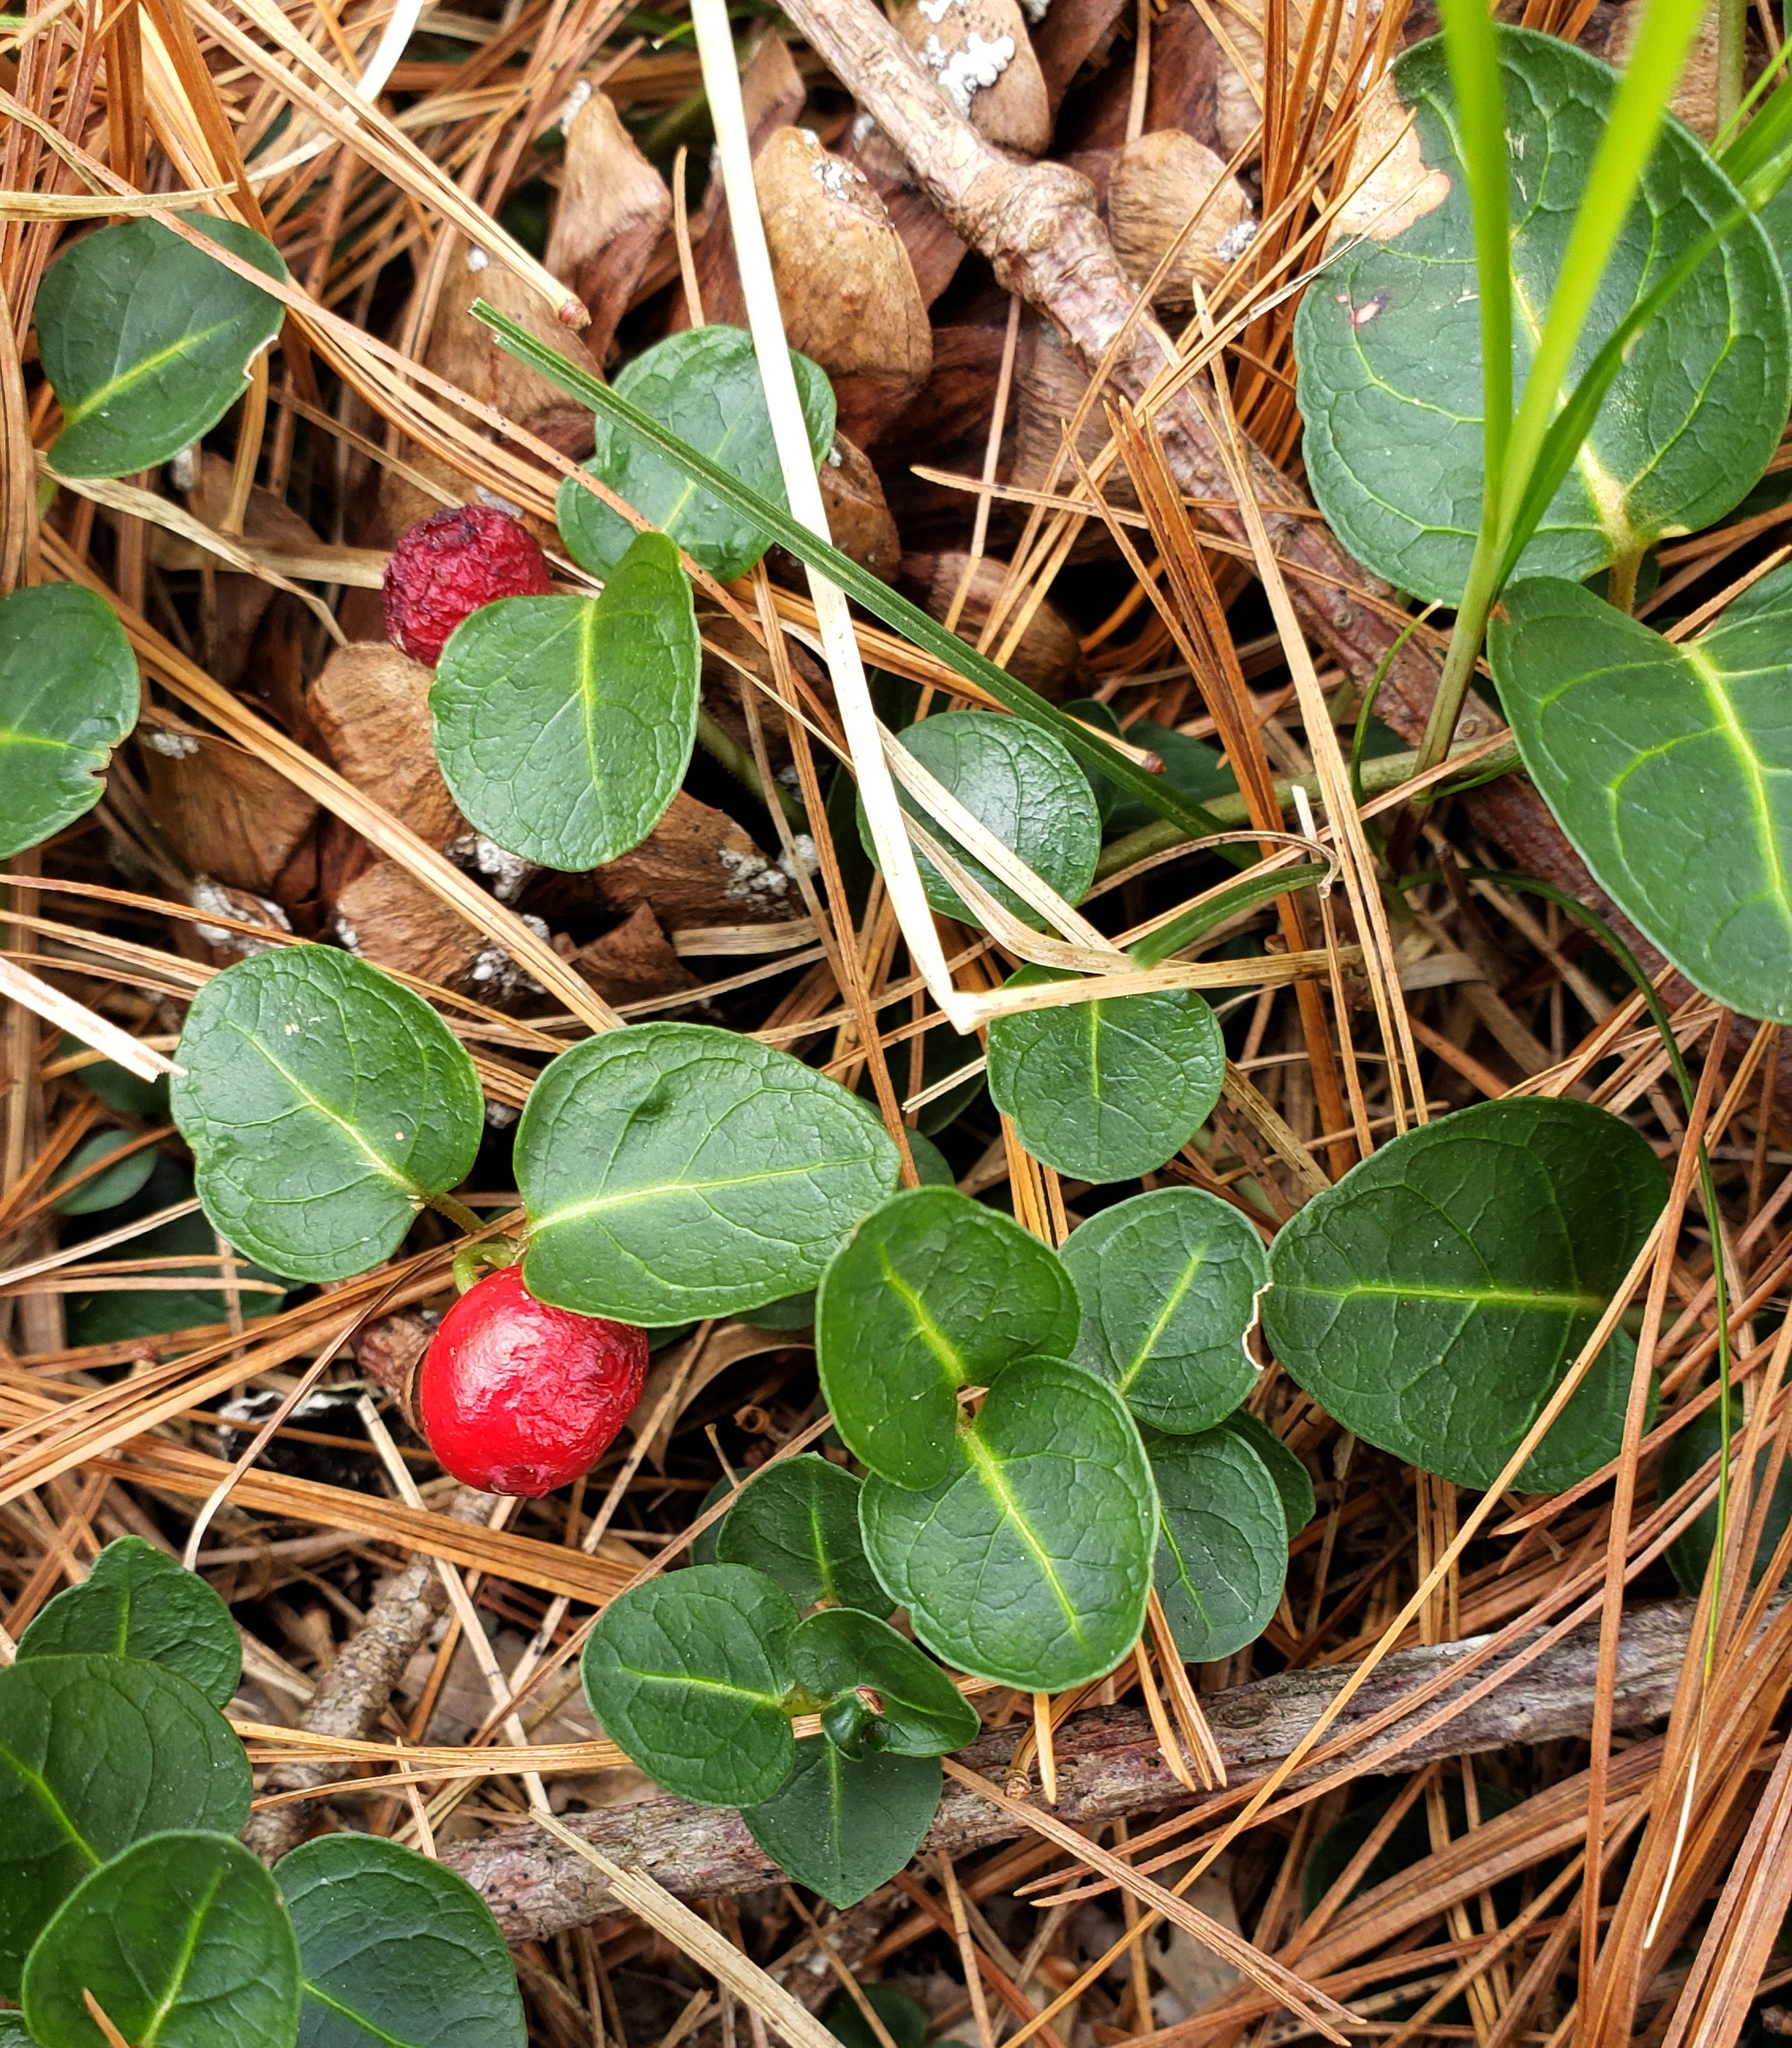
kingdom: Plantae
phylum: Tracheophyta
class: Magnoliopsida
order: Gentianales
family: Rubiaceae
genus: Mitchella
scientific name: Mitchella repens
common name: Partridge-berry
